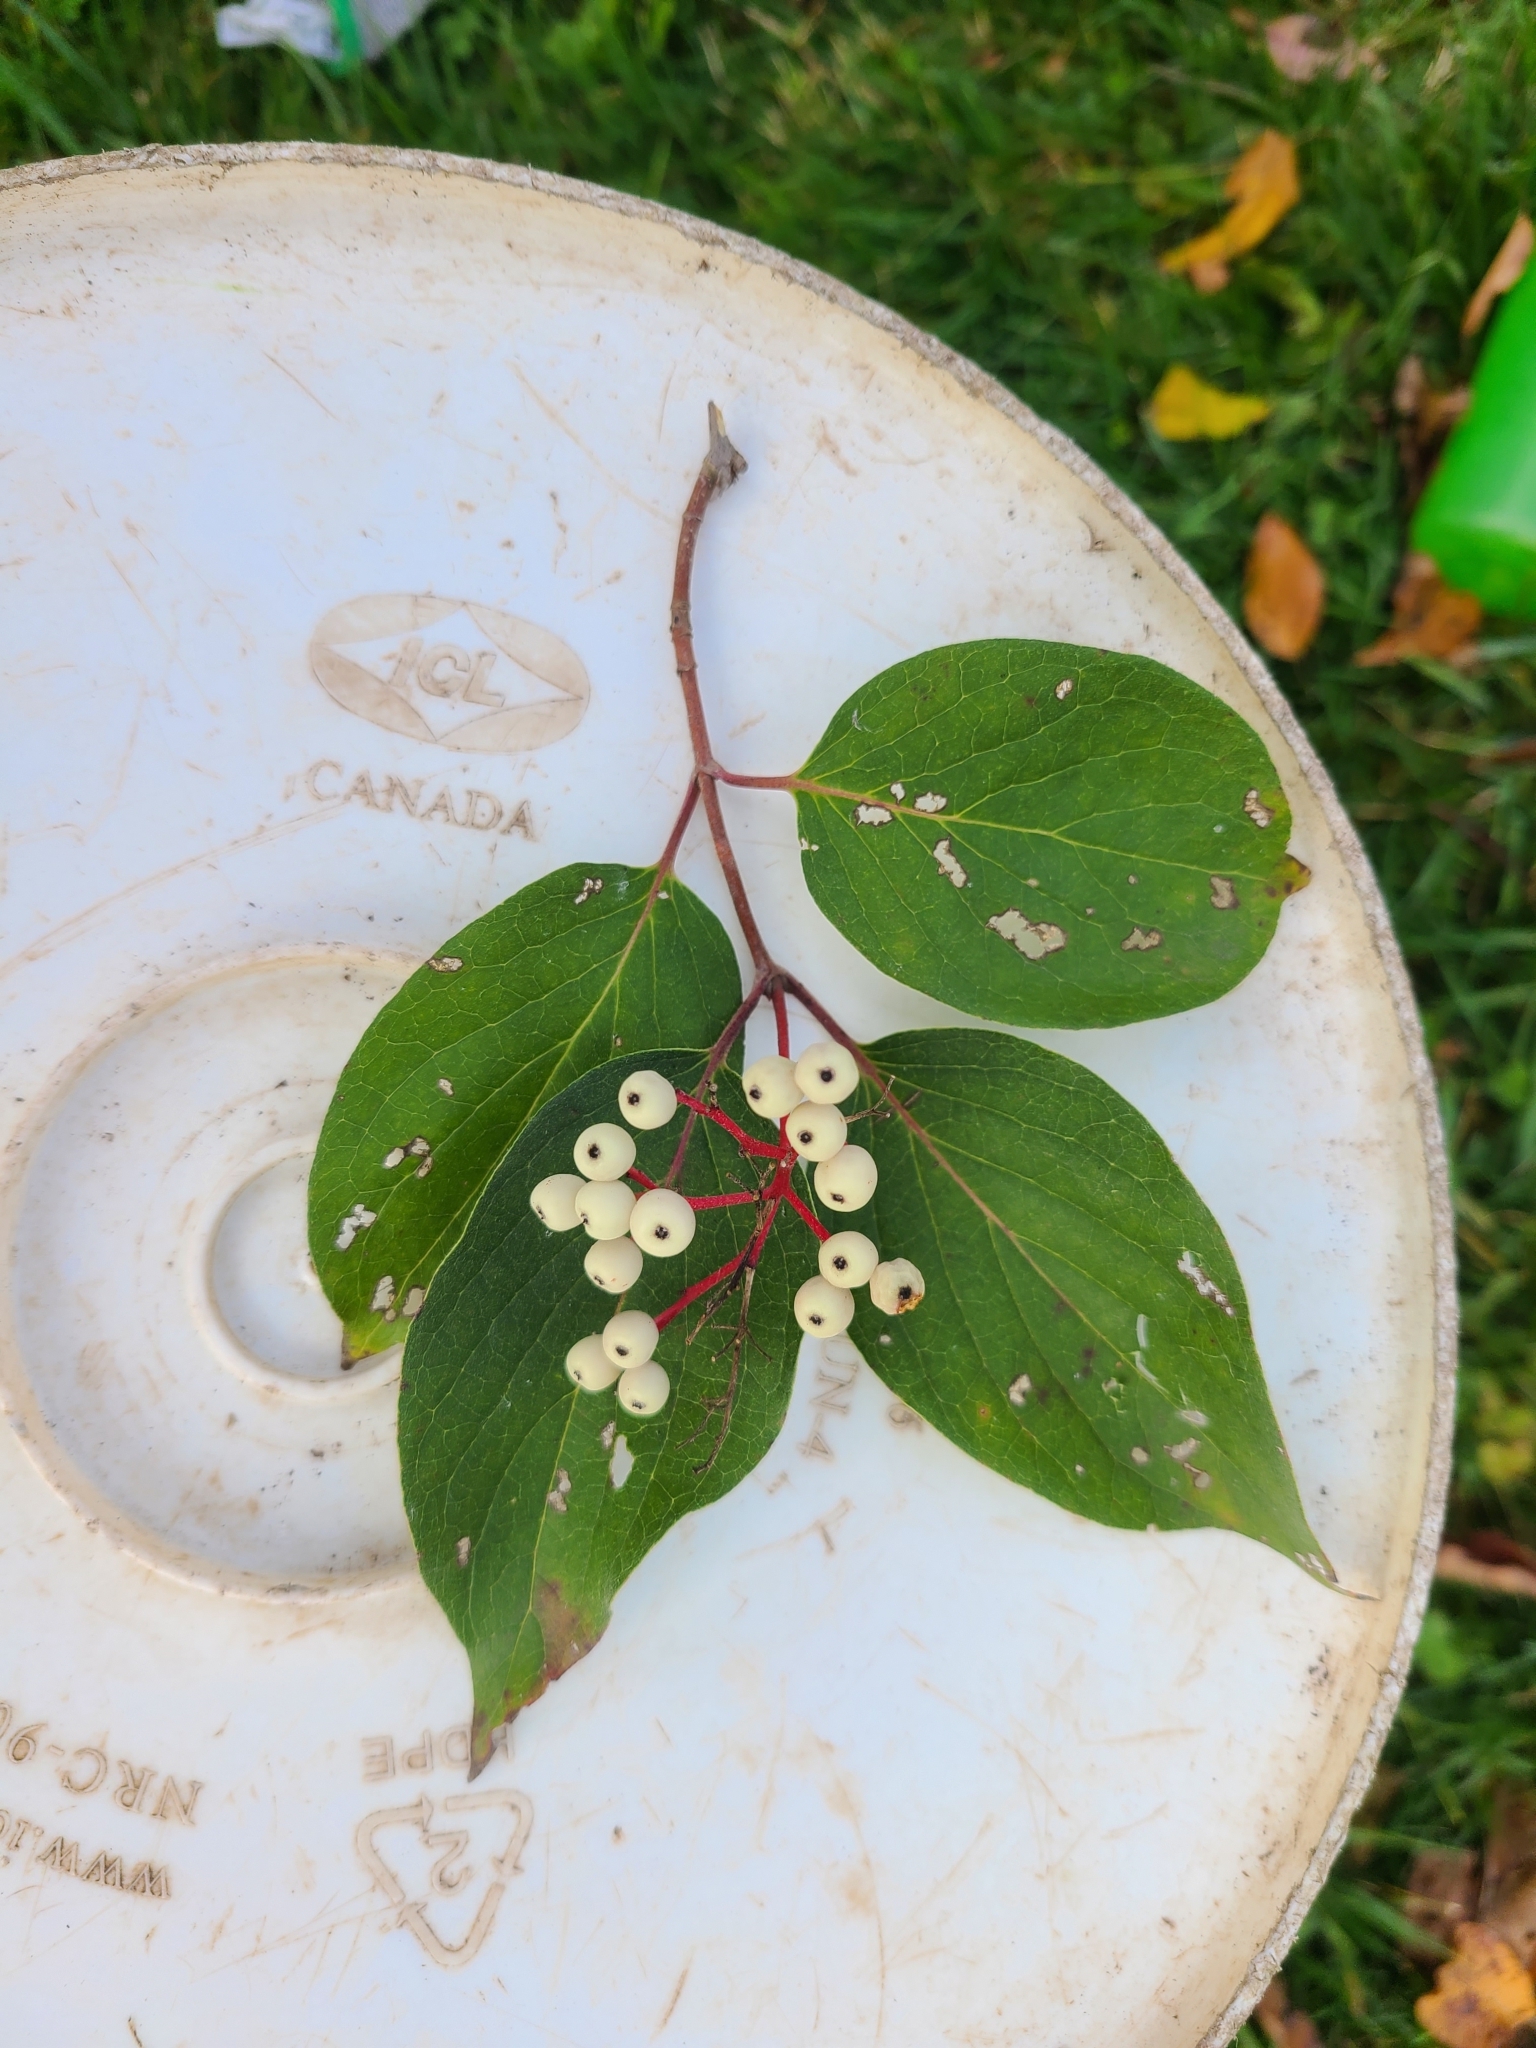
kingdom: Plantae
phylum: Tracheophyta
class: Magnoliopsida
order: Cornales
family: Cornaceae
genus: Cornus
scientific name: Cornus racemosa
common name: Panicled dogwood
